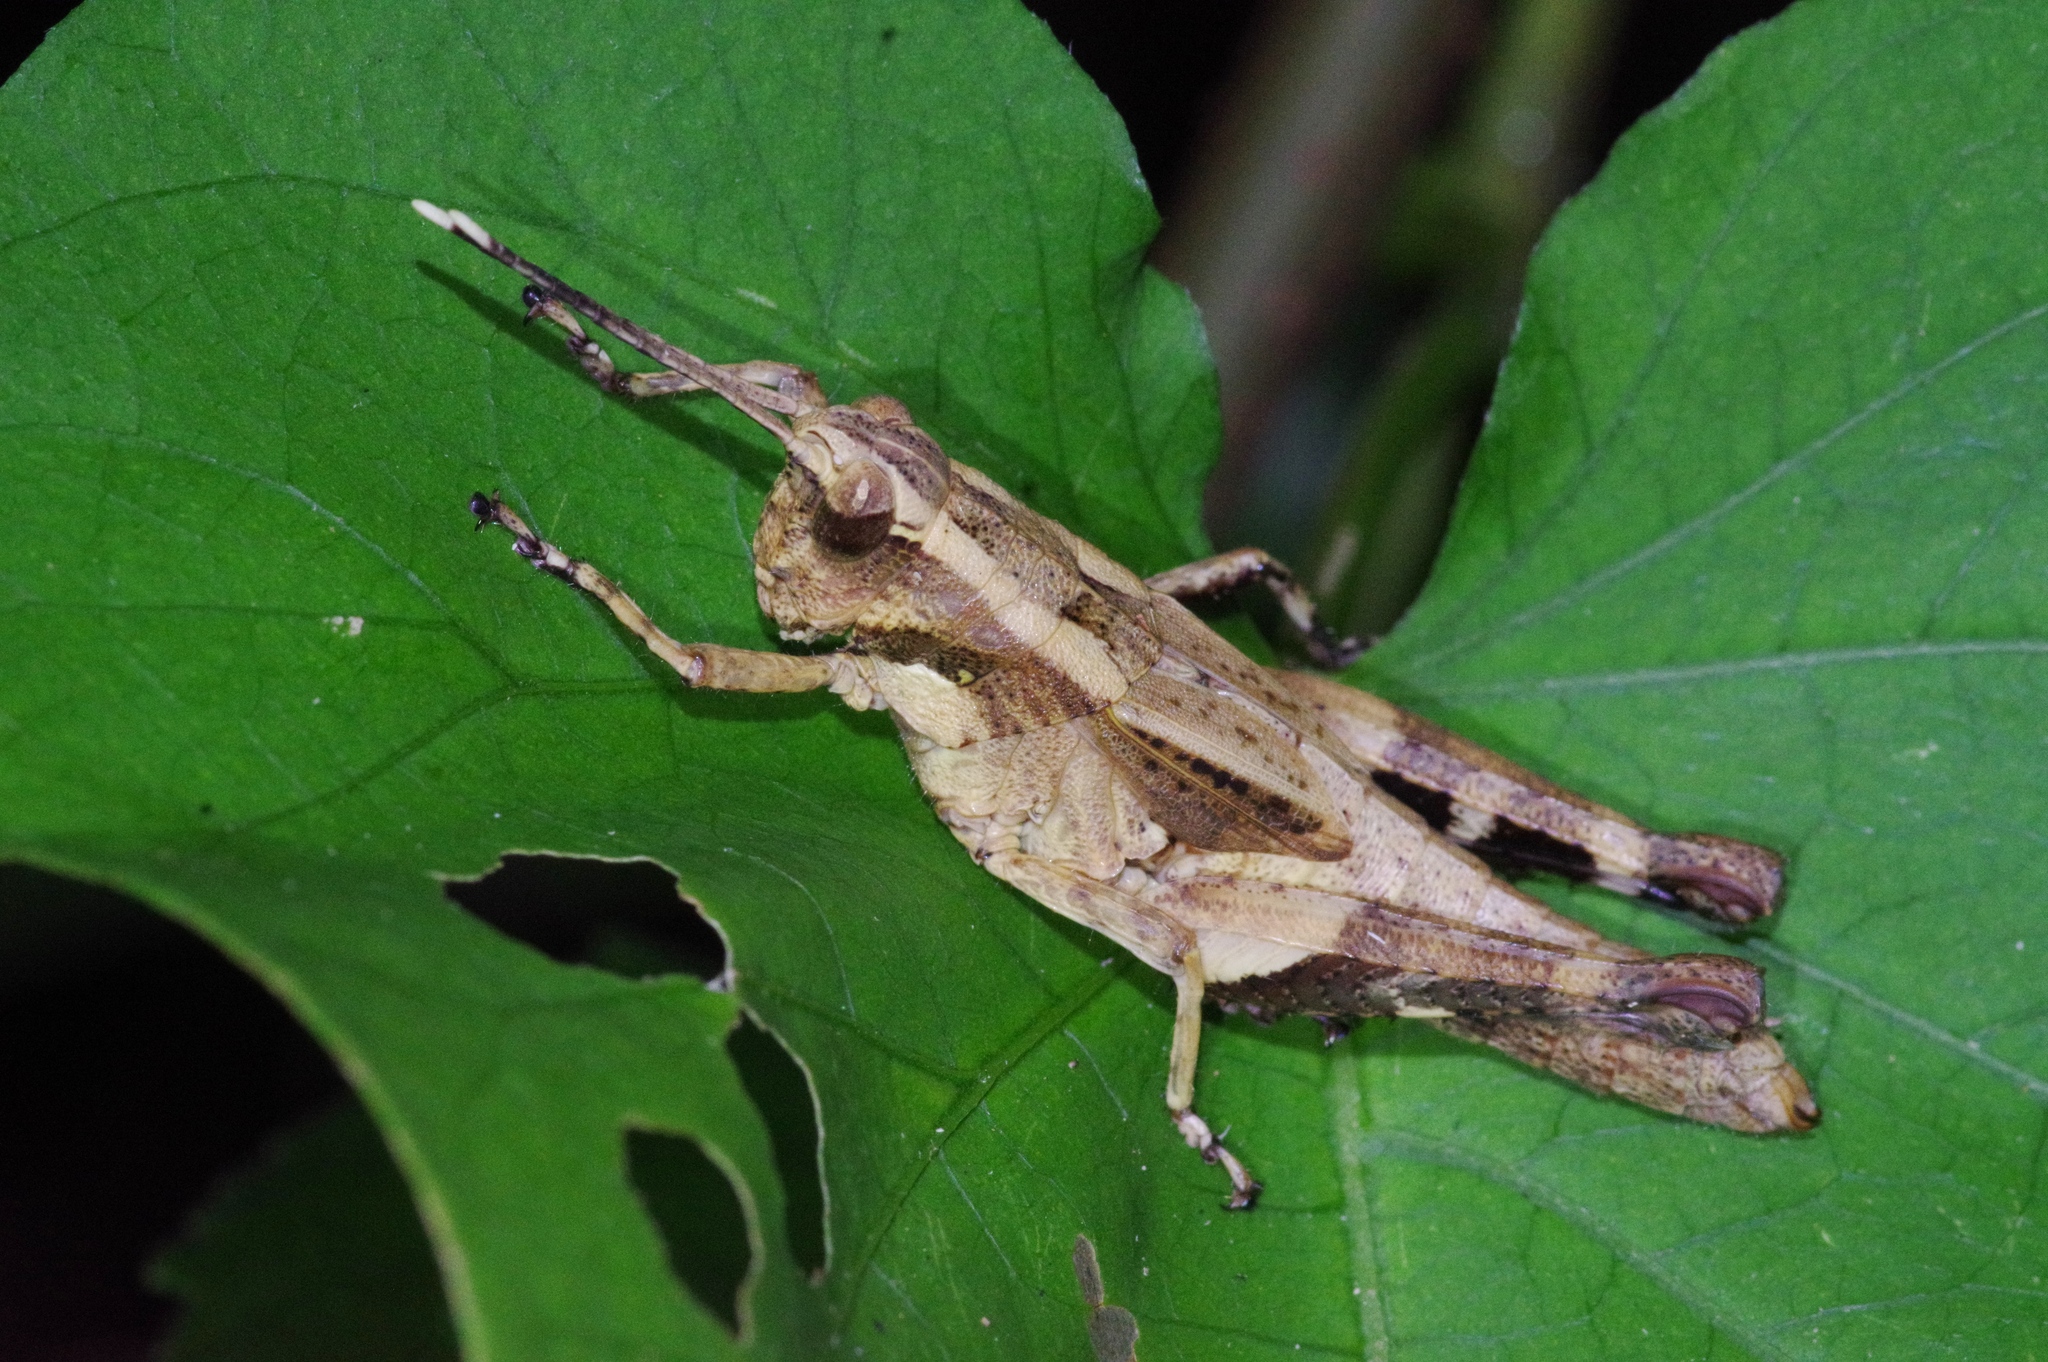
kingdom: Animalia
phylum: Arthropoda
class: Insecta
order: Orthoptera
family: Acrididae
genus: Traulia
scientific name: Traulia ornata
